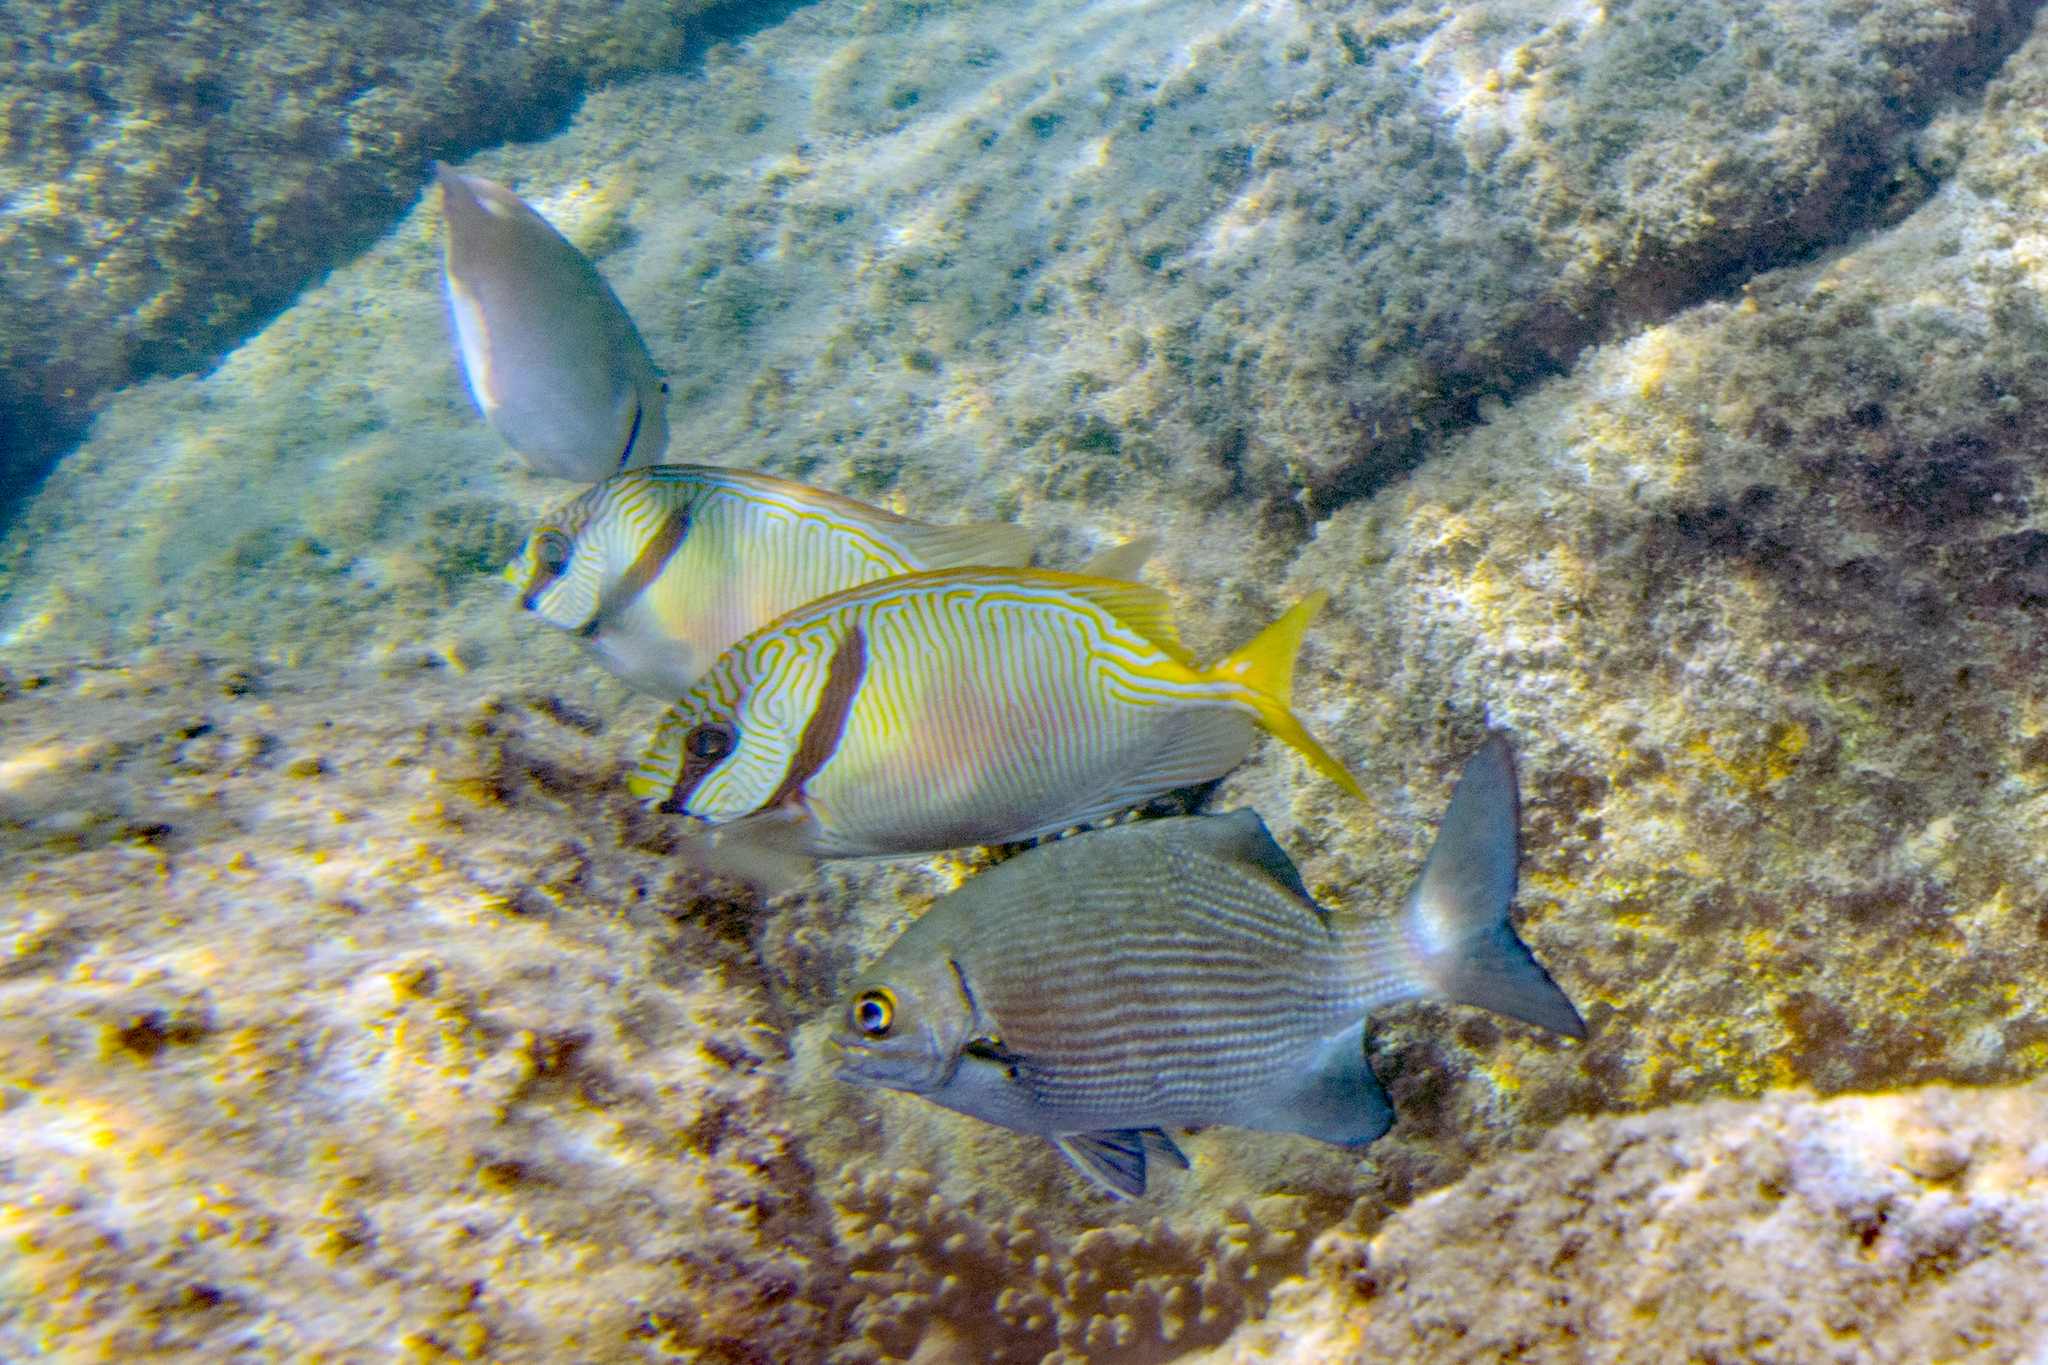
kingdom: Animalia
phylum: Chordata
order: Perciformes
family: Kyphosidae
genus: Kyphosus
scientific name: Kyphosus cinerascens
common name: Topsail drummer
